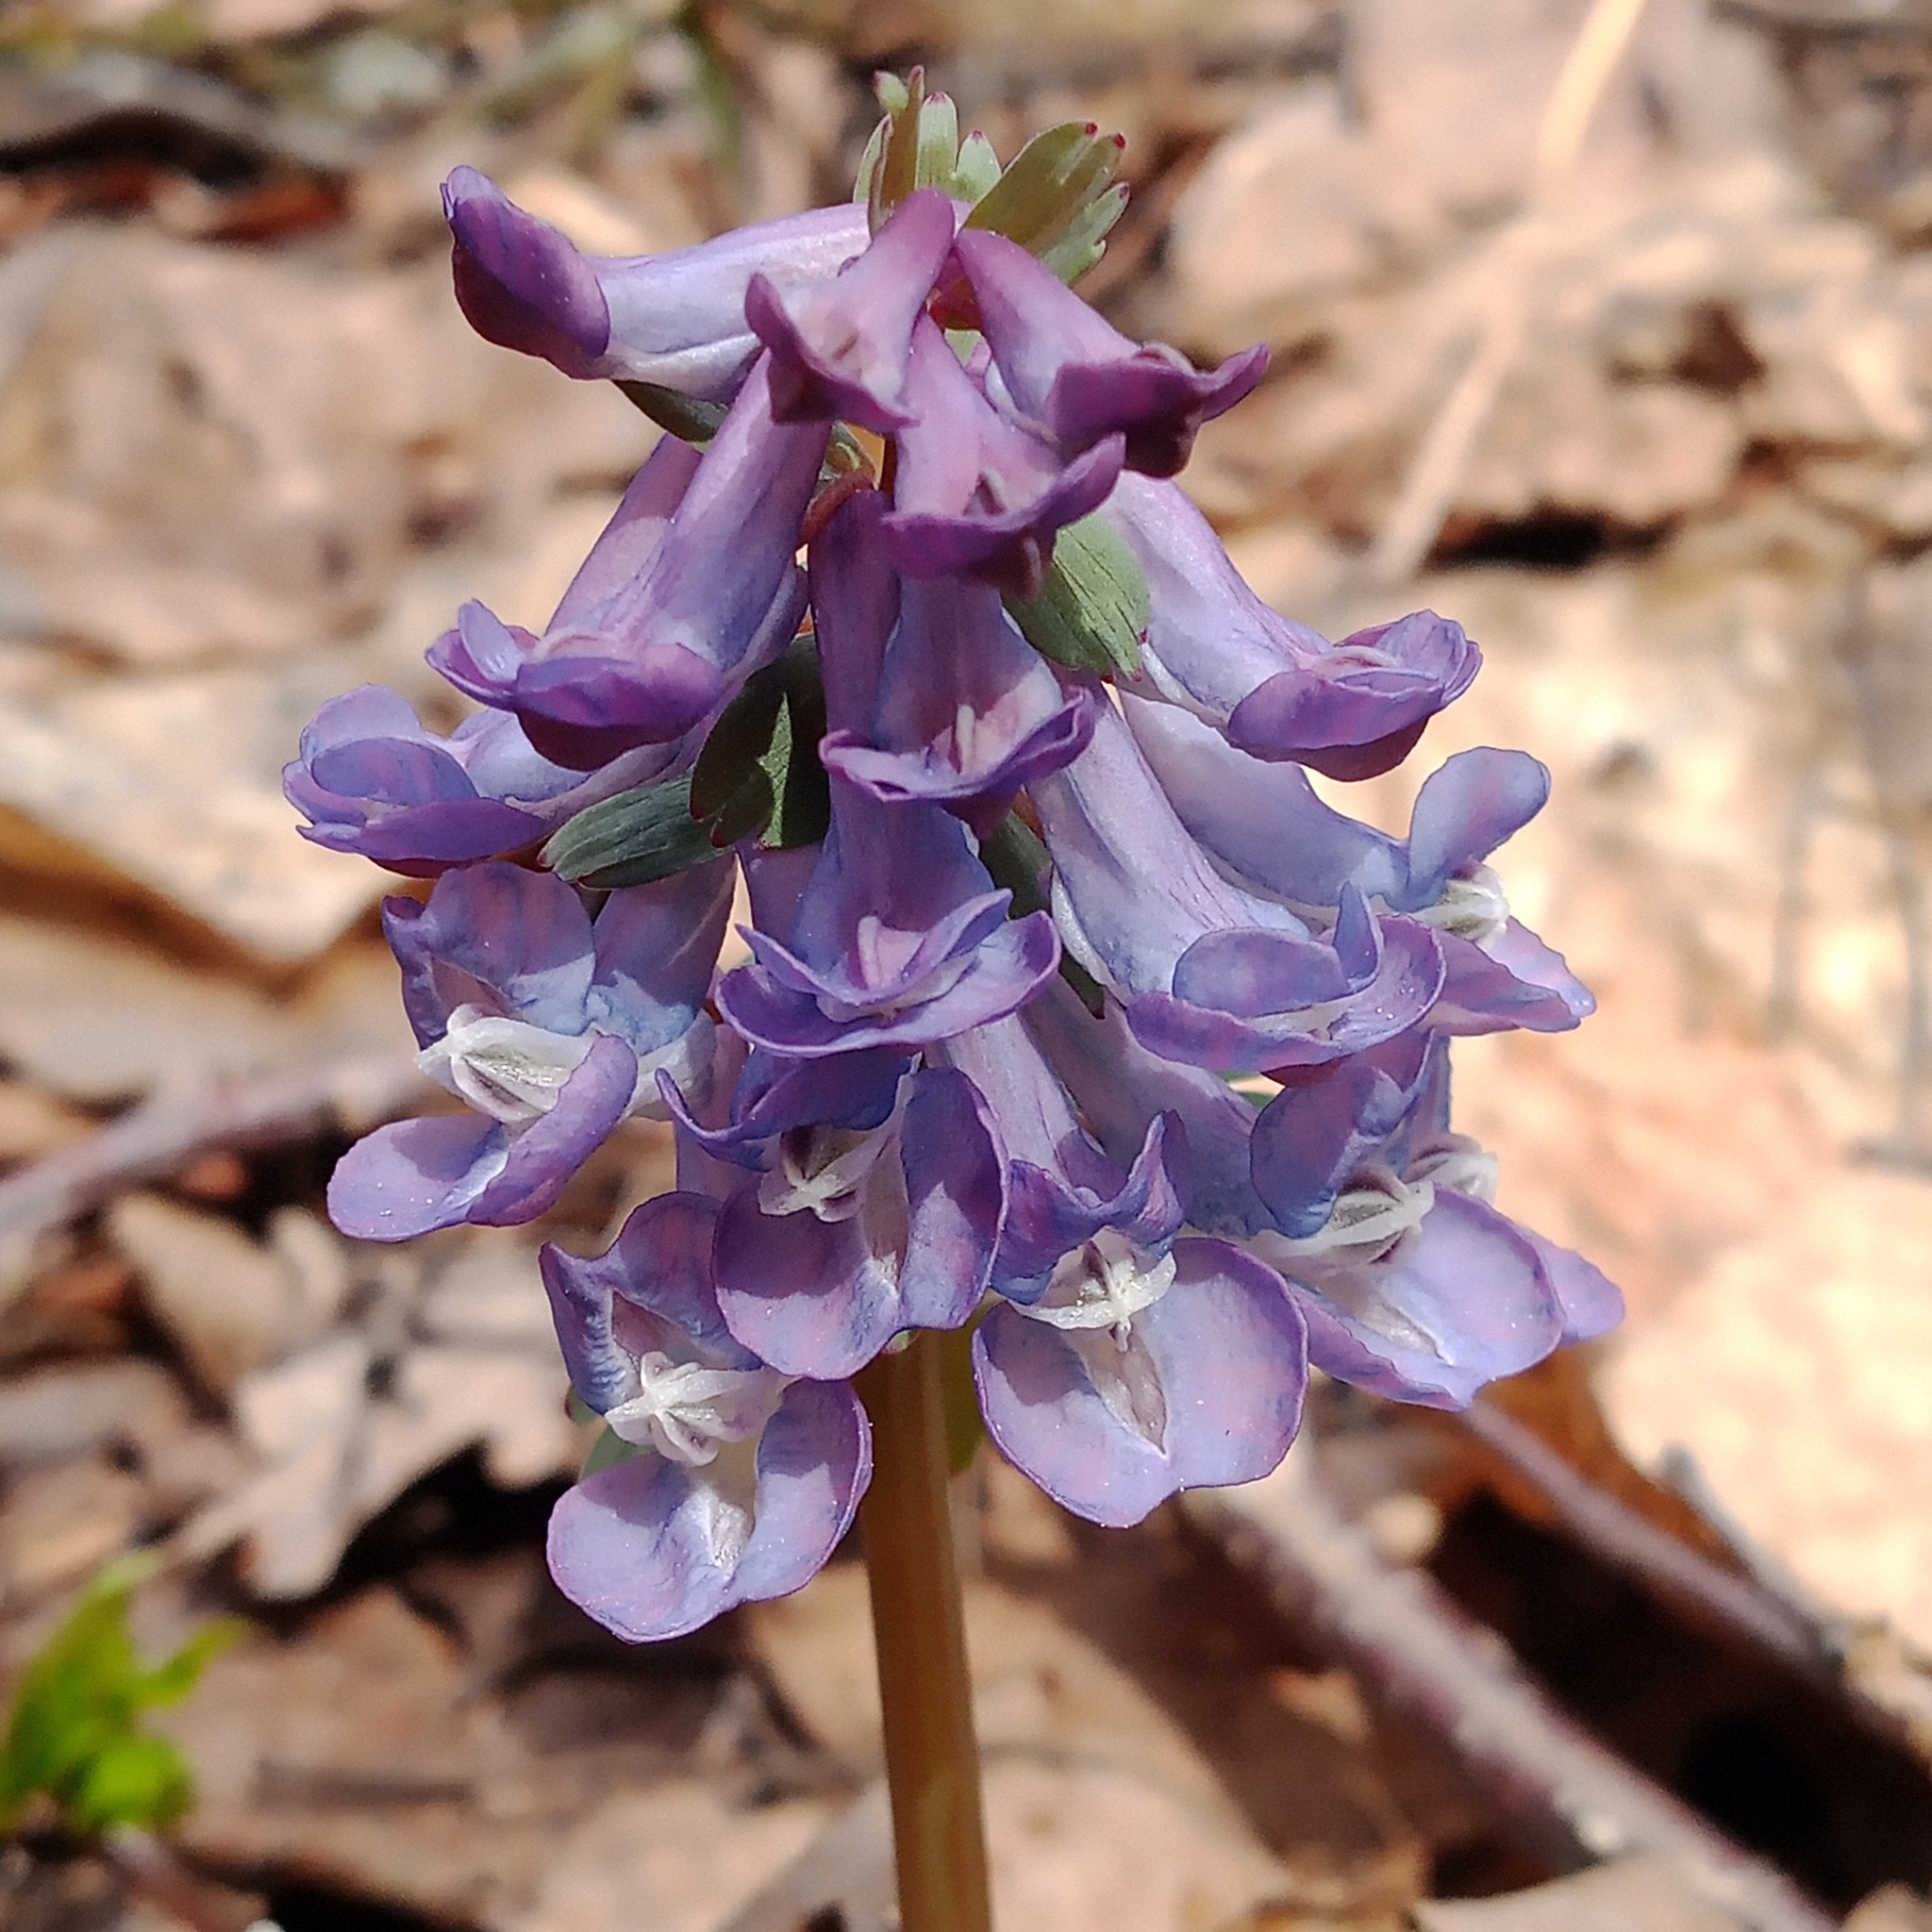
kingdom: Plantae
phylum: Tracheophyta
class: Magnoliopsida
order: Ranunculales
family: Papaveraceae
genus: Corydalis
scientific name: Corydalis solida
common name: Bird-in-a-bush
